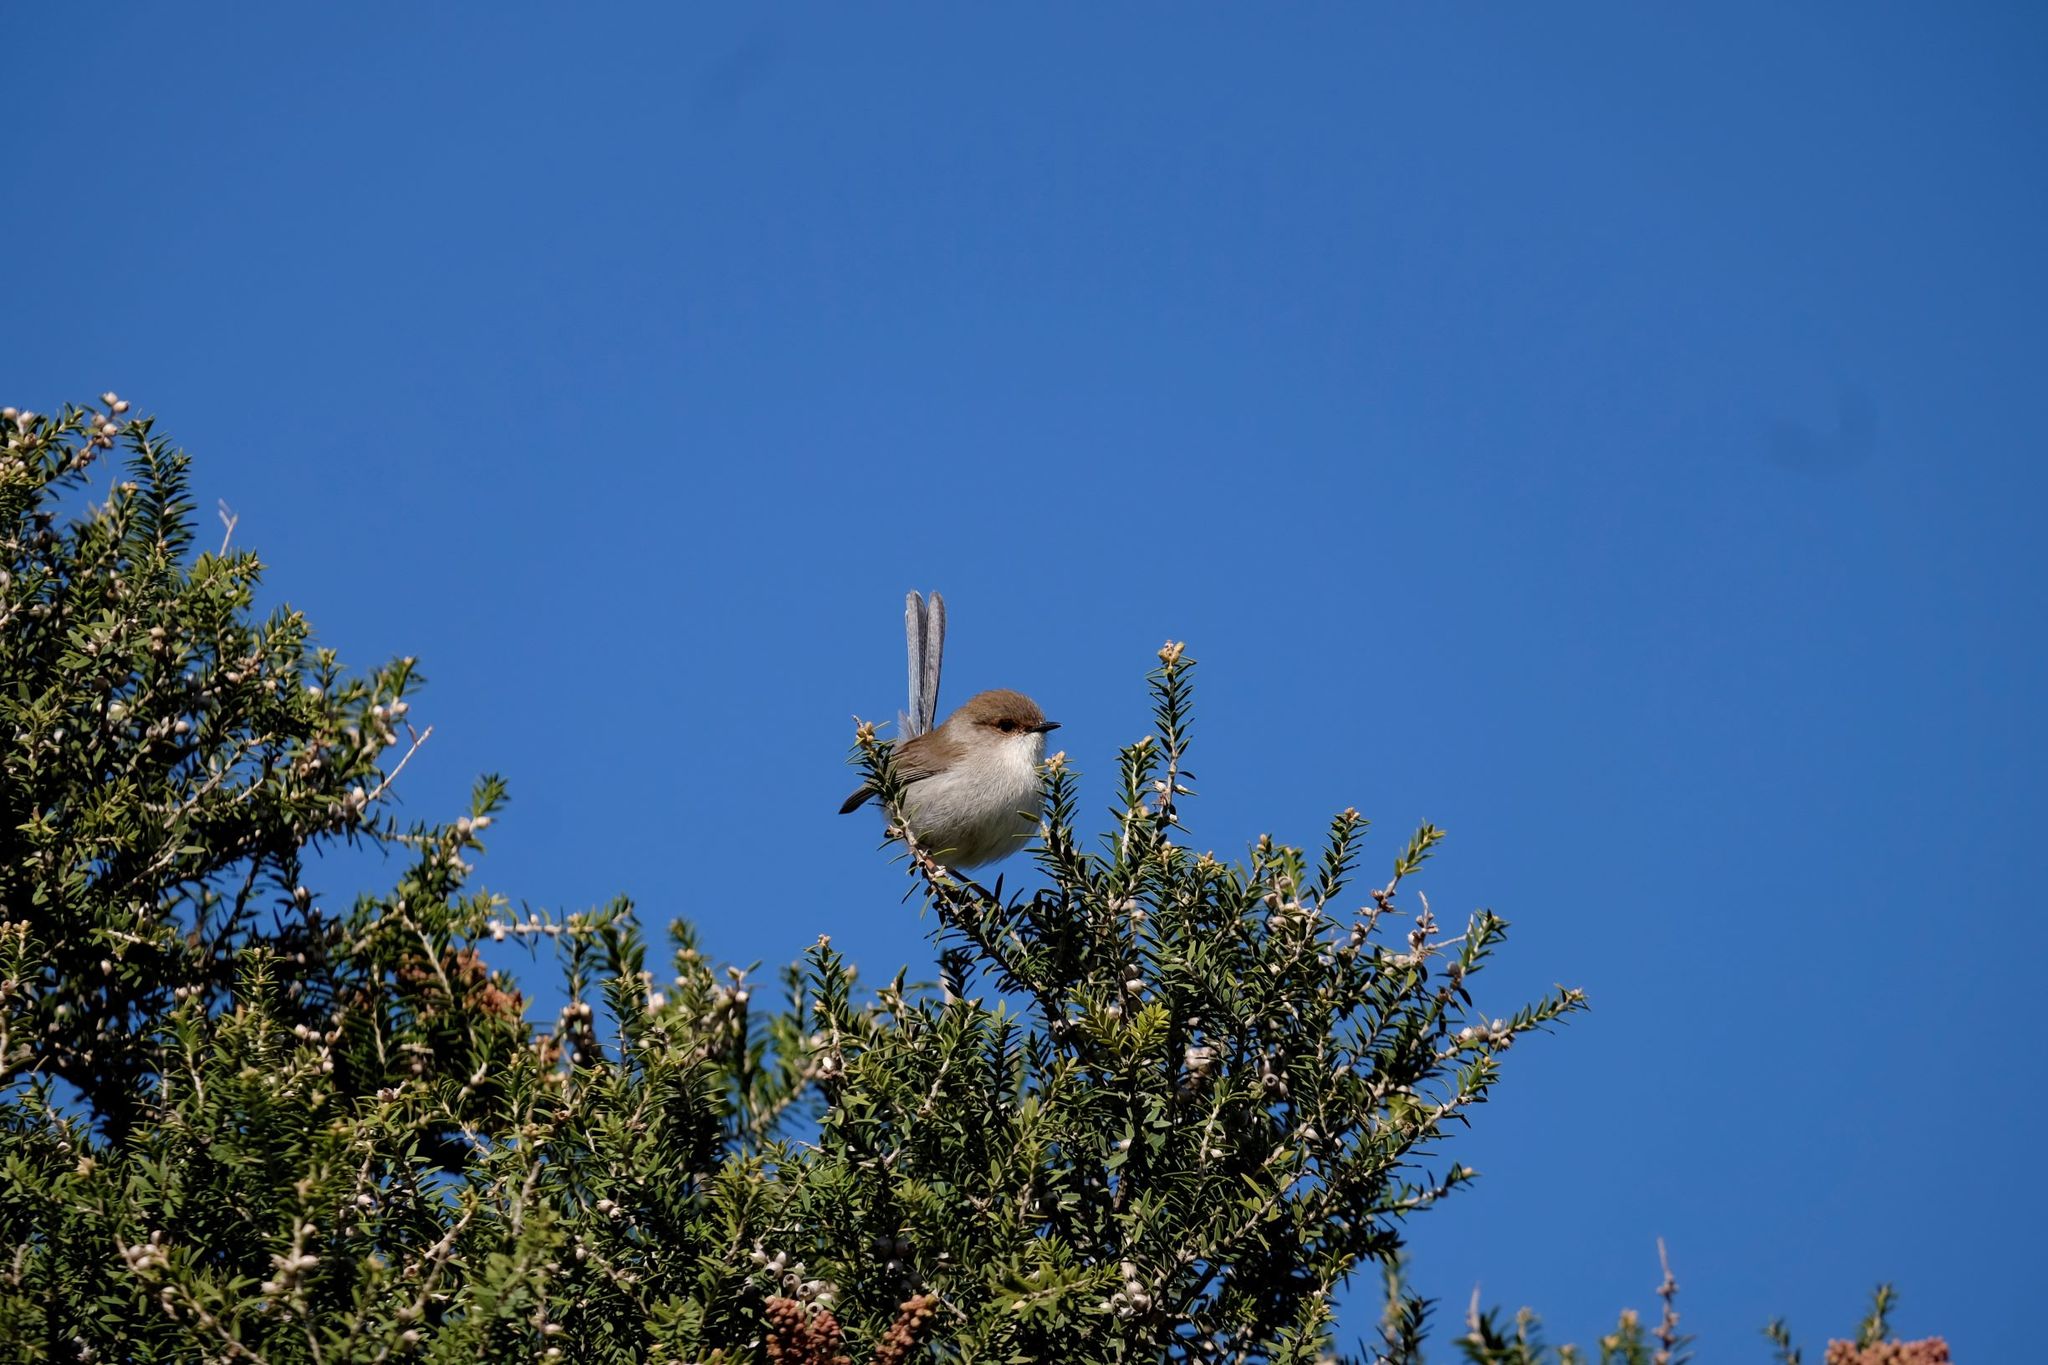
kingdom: Animalia
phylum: Chordata
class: Aves
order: Passeriformes
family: Maluridae
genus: Malurus
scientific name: Malurus cyaneus
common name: Superb fairywren
